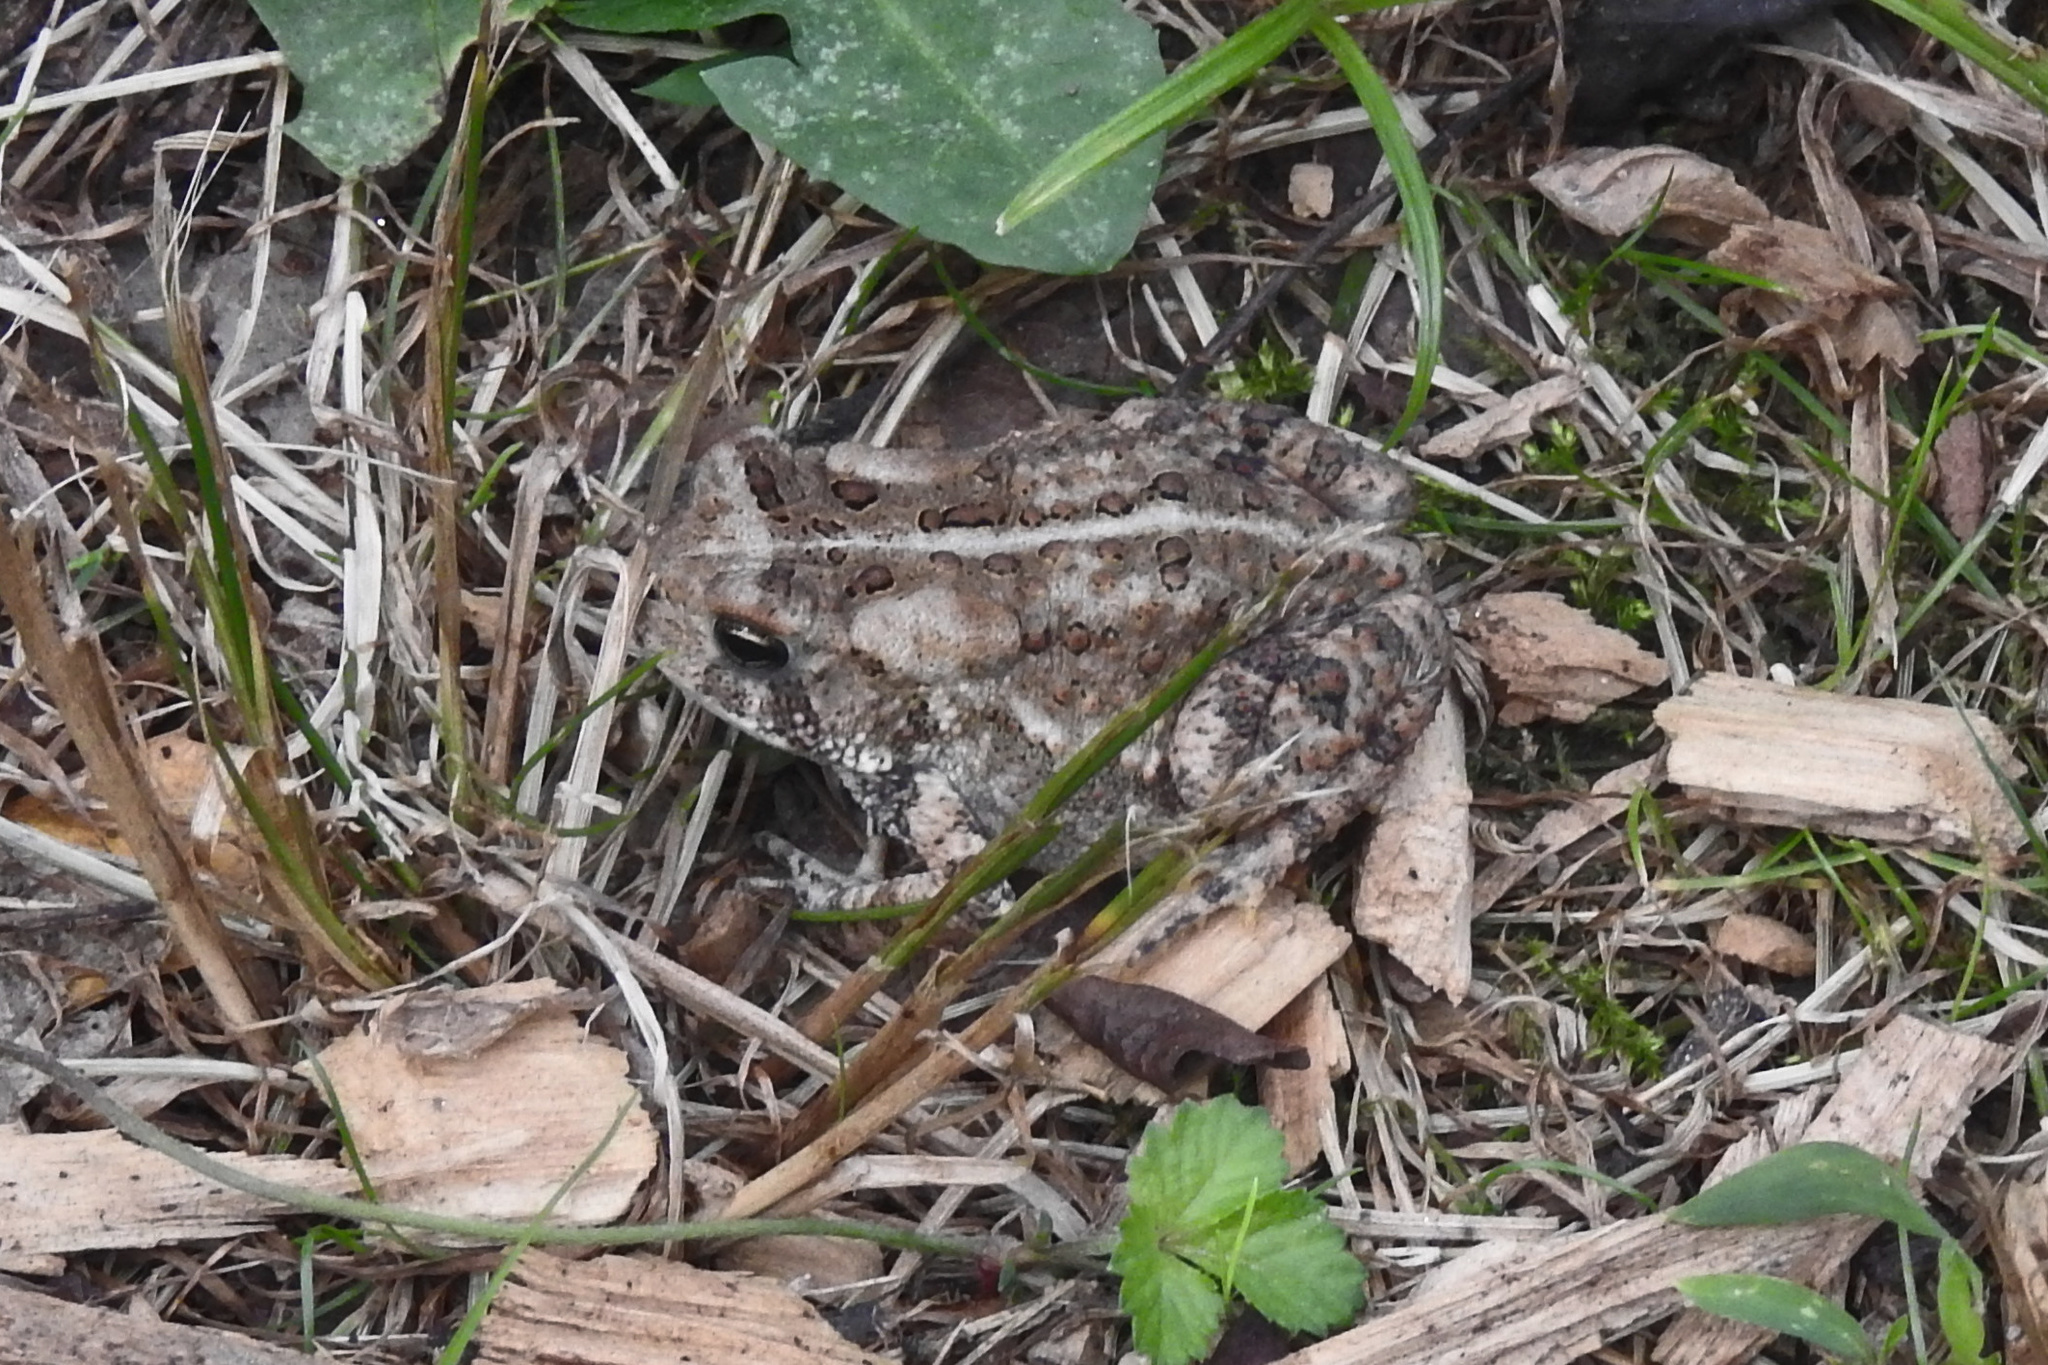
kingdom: Animalia
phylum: Chordata
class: Amphibia
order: Anura
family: Bufonidae
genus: Anaxyrus
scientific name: Anaxyrus americanus
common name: American toad
